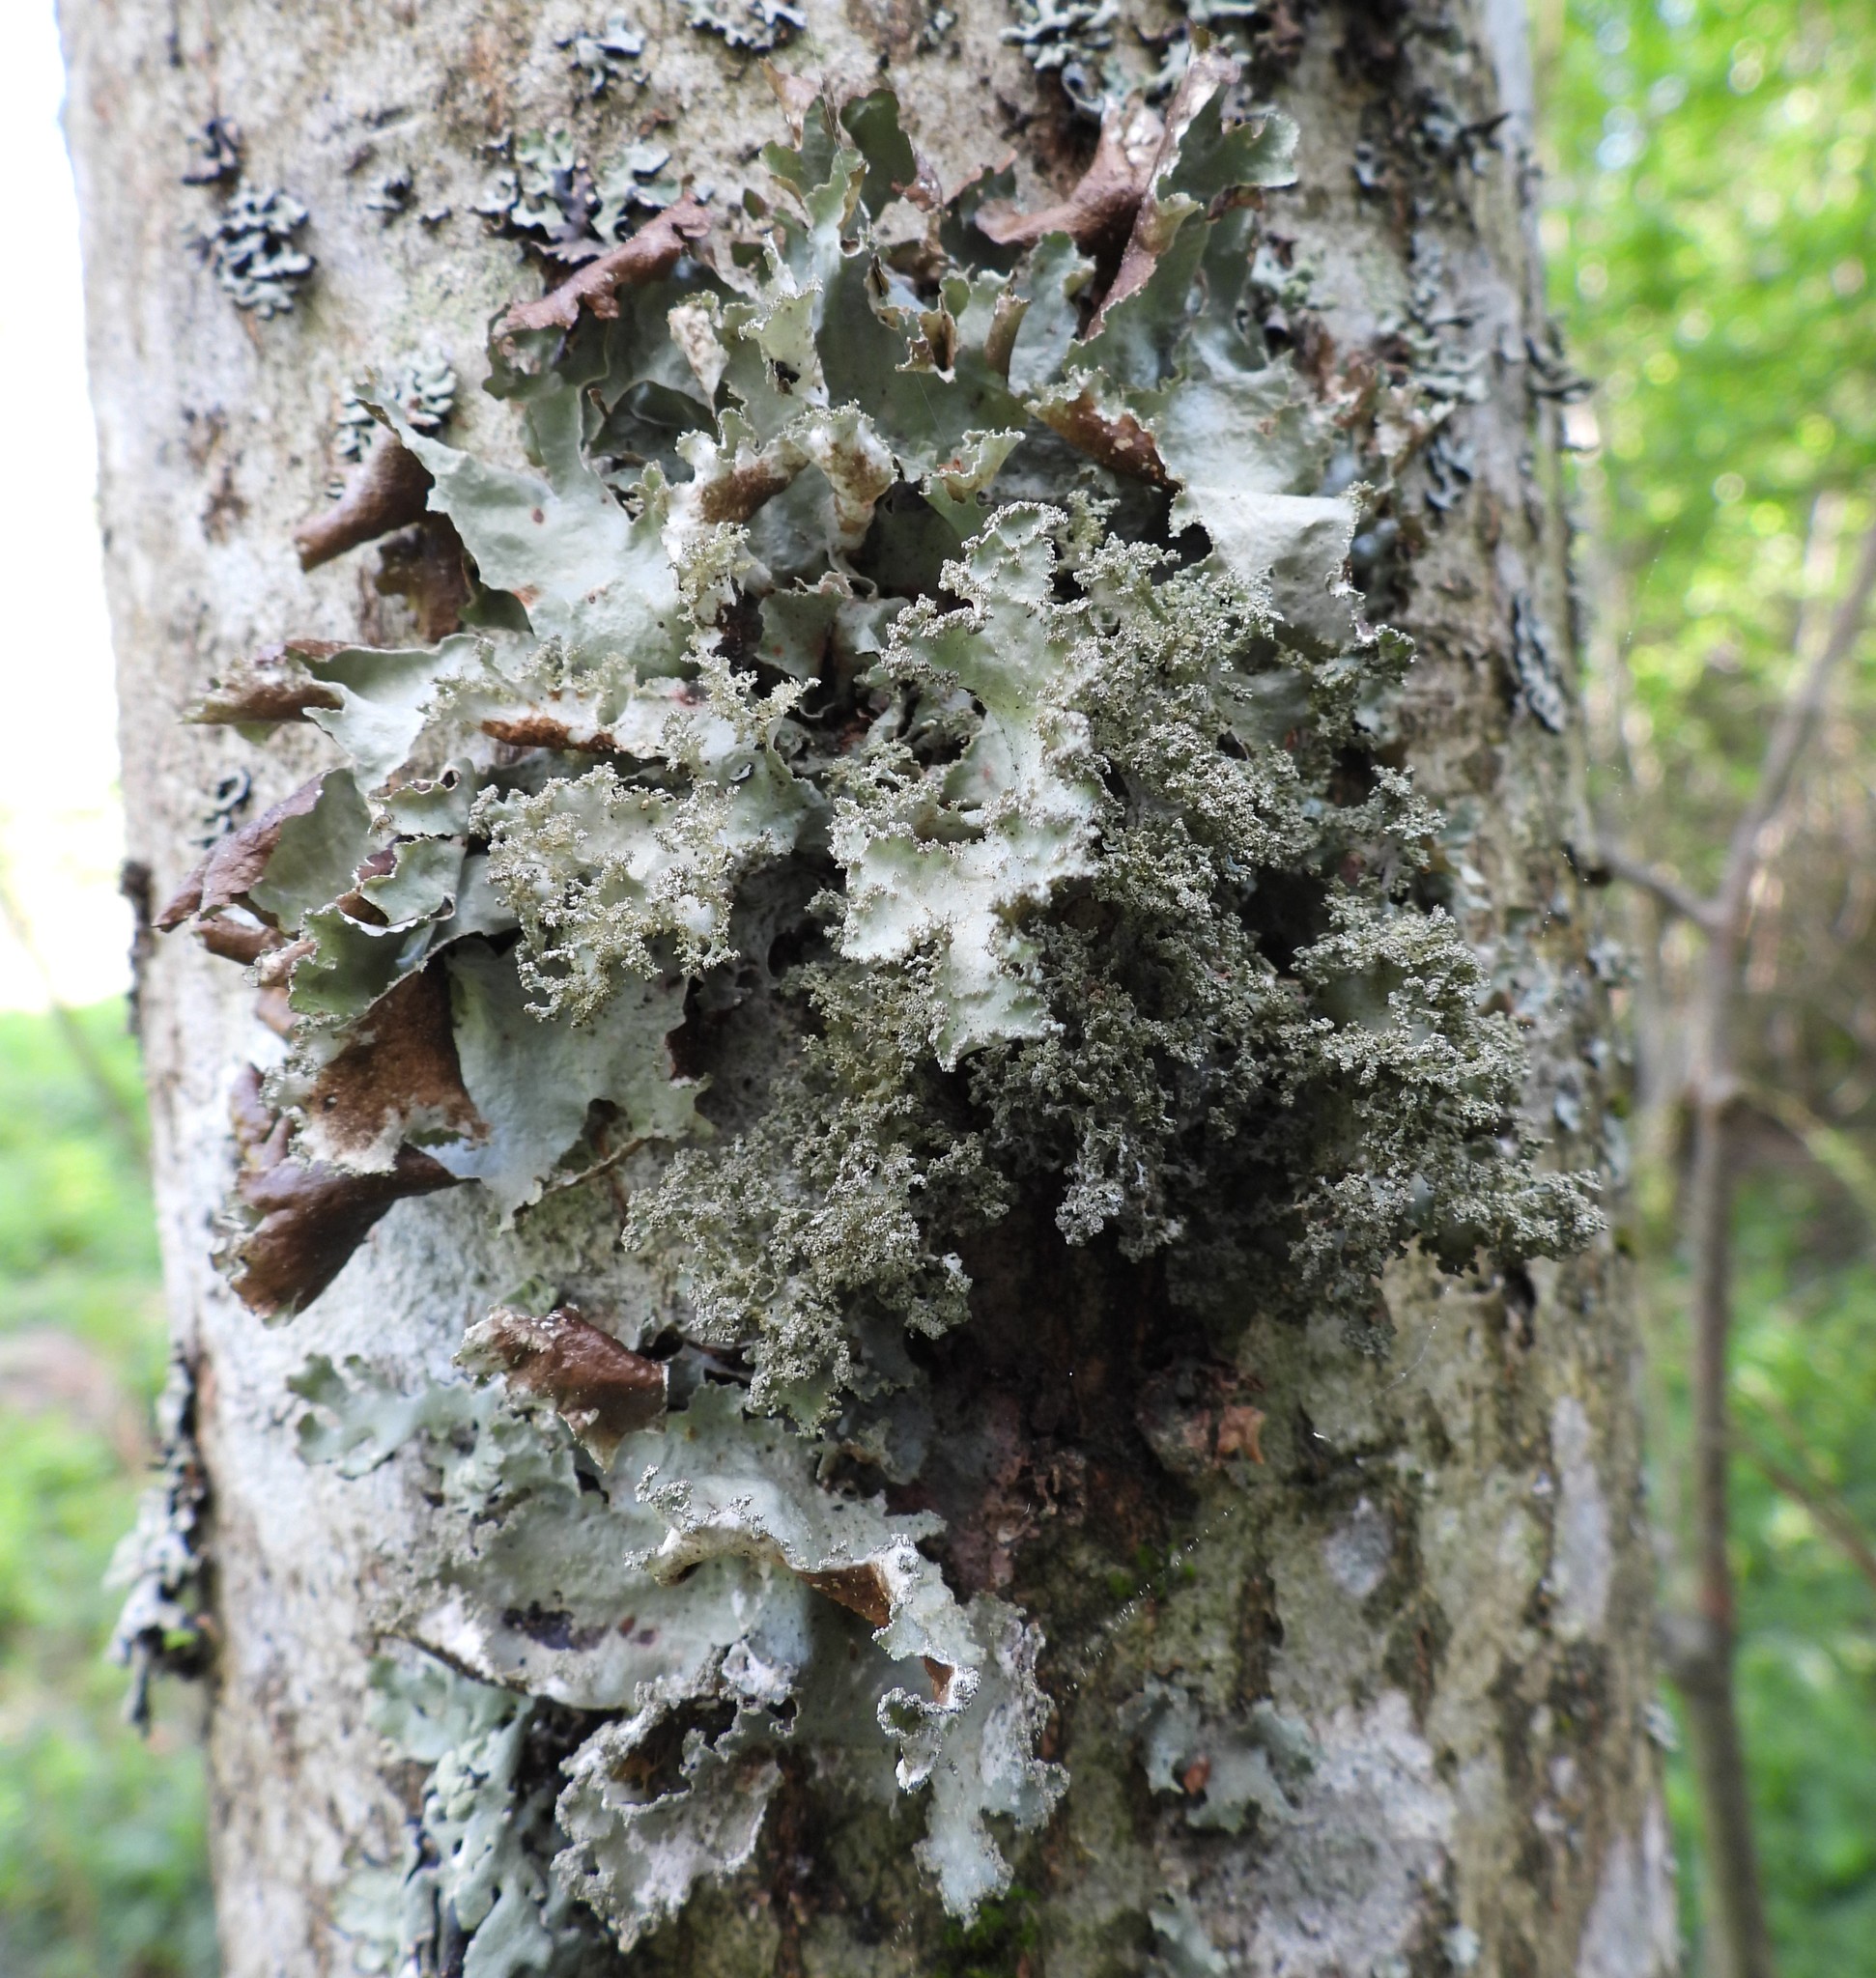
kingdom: Fungi
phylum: Ascomycota
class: Lecanoromycetes
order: Lecanorales
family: Parmeliaceae
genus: Platismatia
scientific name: Platismatia glauca
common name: Varied rag lichen
